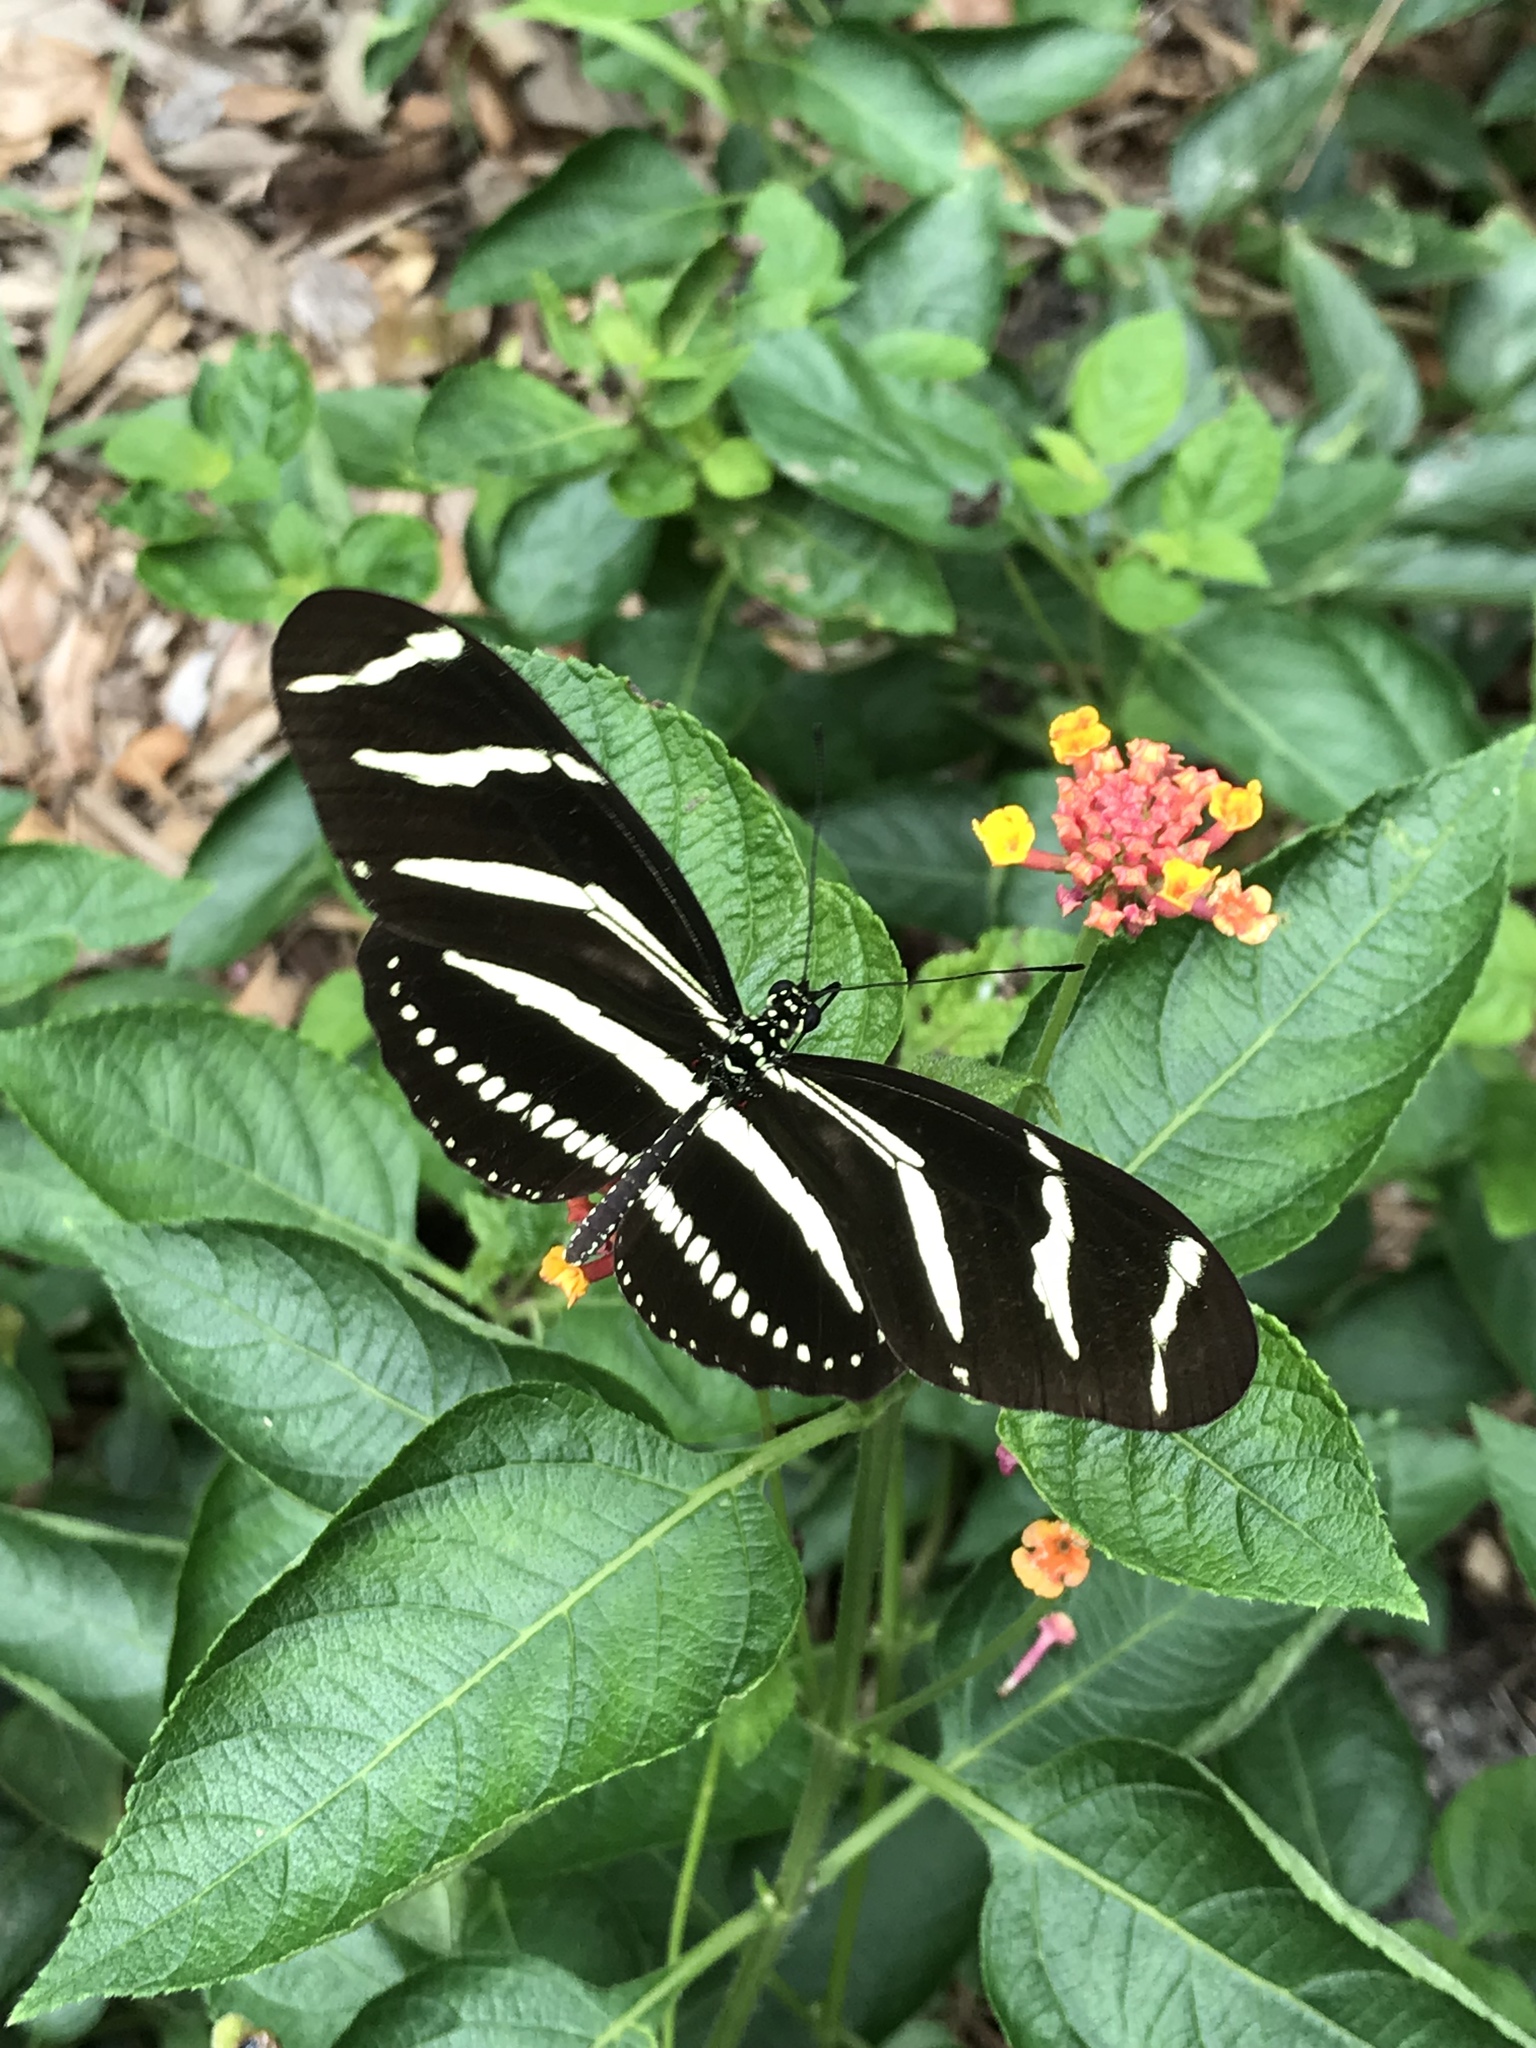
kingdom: Animalia
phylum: Arthropoda
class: Insecta
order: Lepidoptera
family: Nymphalidae
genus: Heliconius
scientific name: Heliconius charithonia
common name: Zebra long wing
